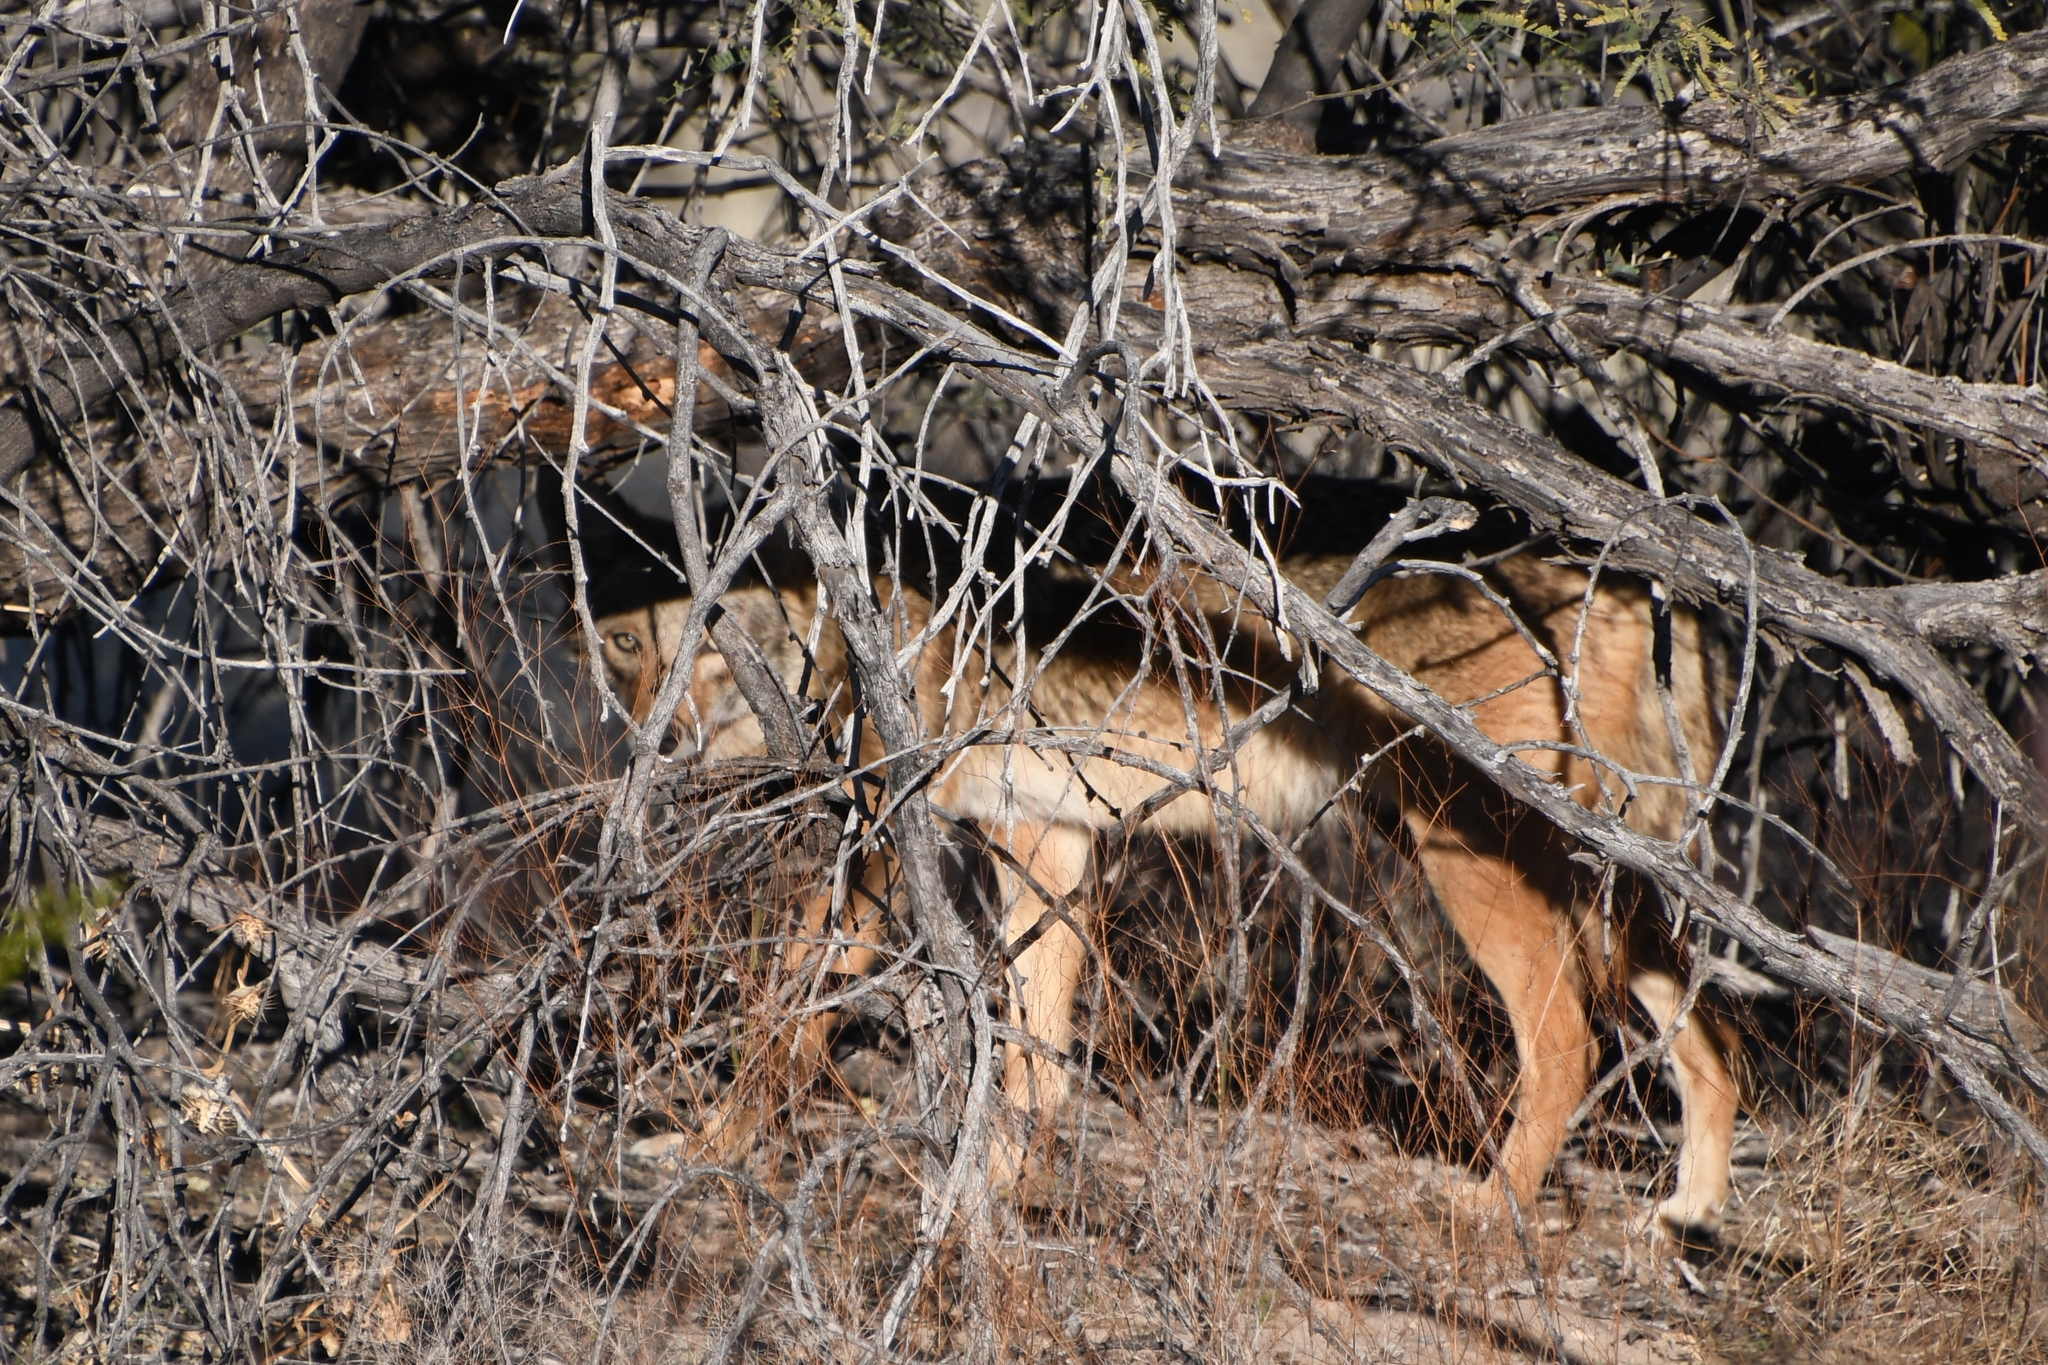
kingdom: Animalia
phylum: Chordata
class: Mammalia
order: Carnivora
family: Canidae
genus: Canis
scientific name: Canis latrans
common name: Coyote
